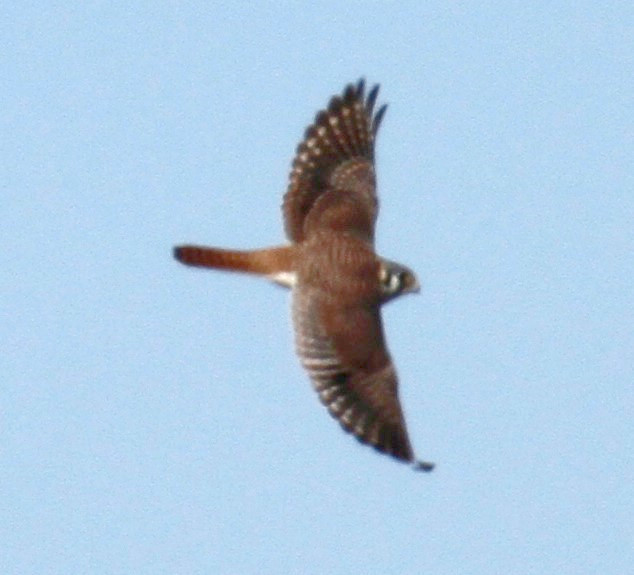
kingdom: Animalia
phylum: Chordata
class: Aves
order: Falconiformes
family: Falconidae
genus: Falco
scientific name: Falco sparverius
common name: American kestrel
